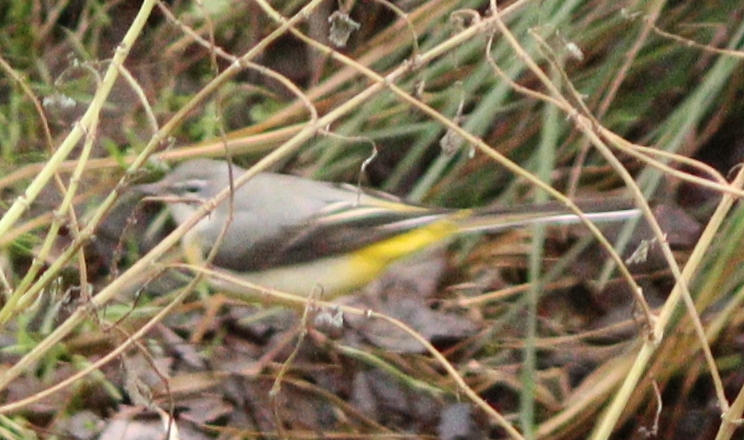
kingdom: Animalia
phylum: Chordata
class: Aves
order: Passeriformes
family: Motacillidae
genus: Motacilla
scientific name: Motacilla cinerea
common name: Grey wagtail
